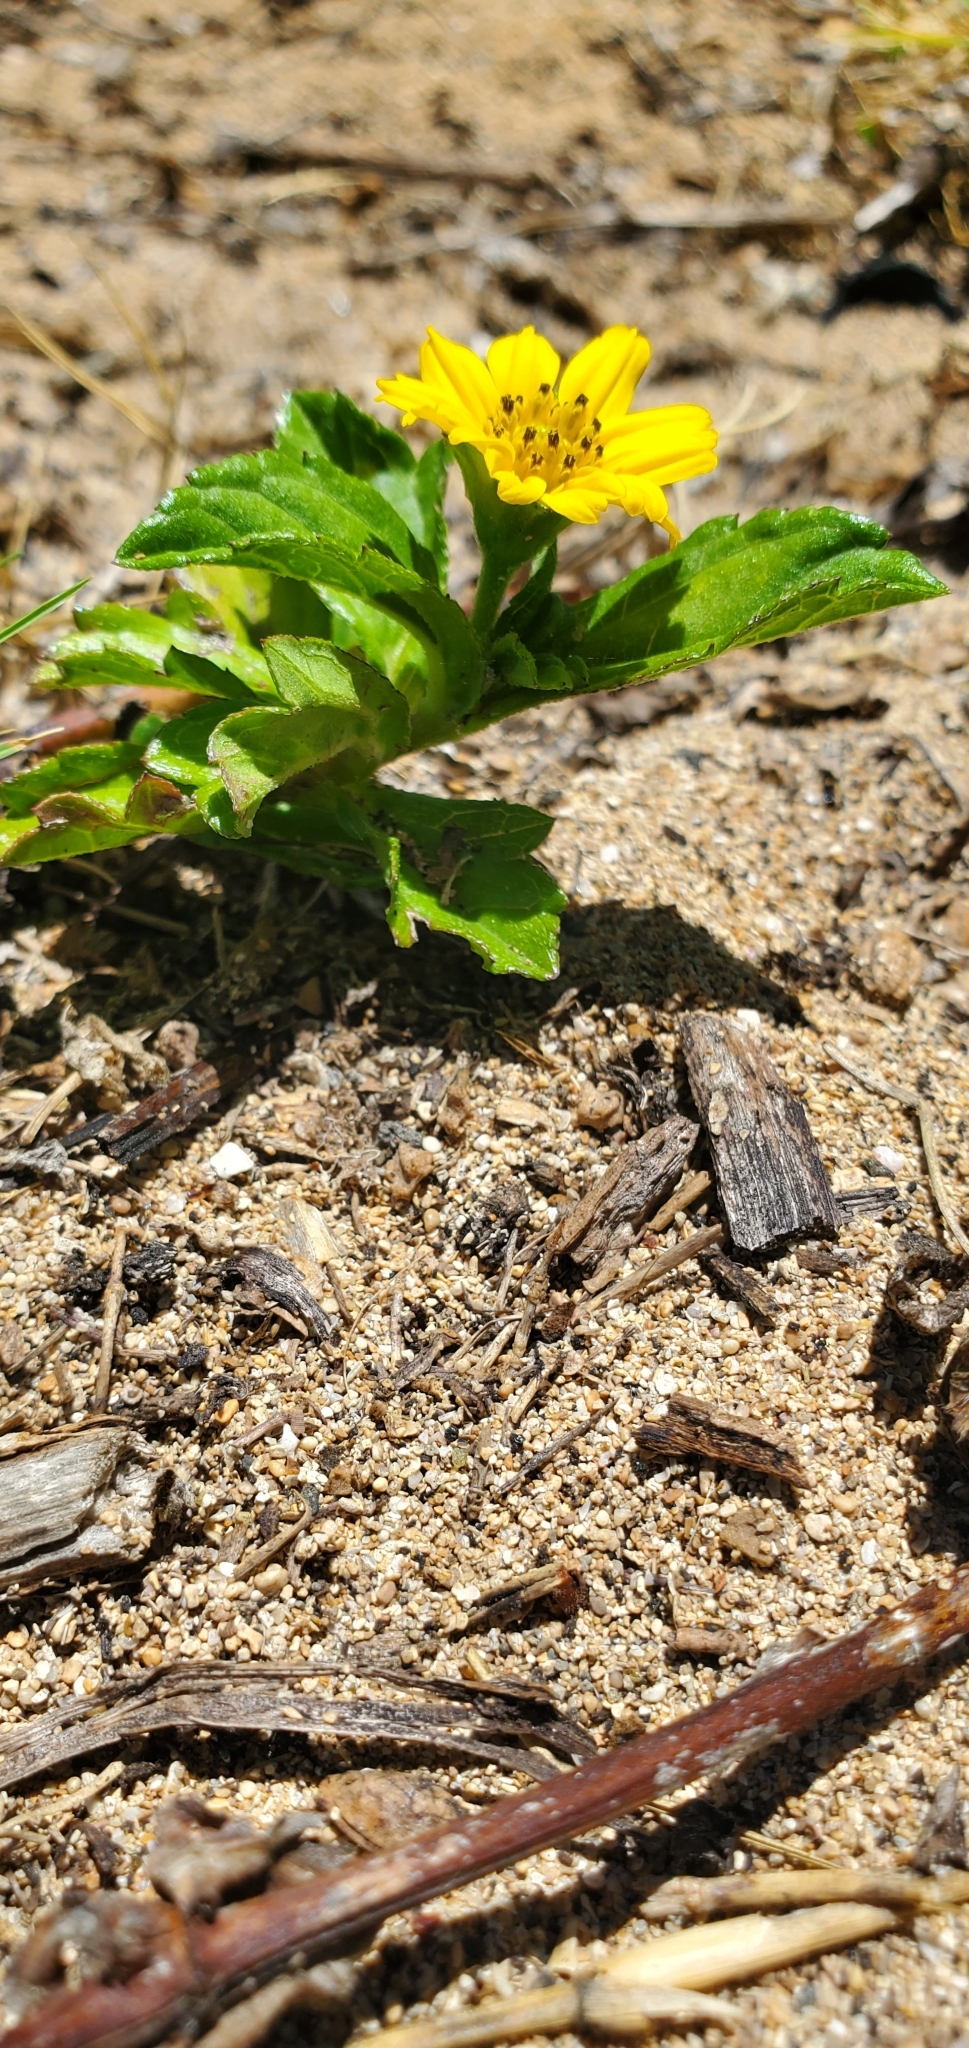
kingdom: Plantae
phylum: Tracheophyta
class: Magnoliopsida
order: Asterales
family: Asteraceae
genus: Sphagneticola
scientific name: Sphagneticola trilobata
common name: Bay biscayne creeping-oxeye
